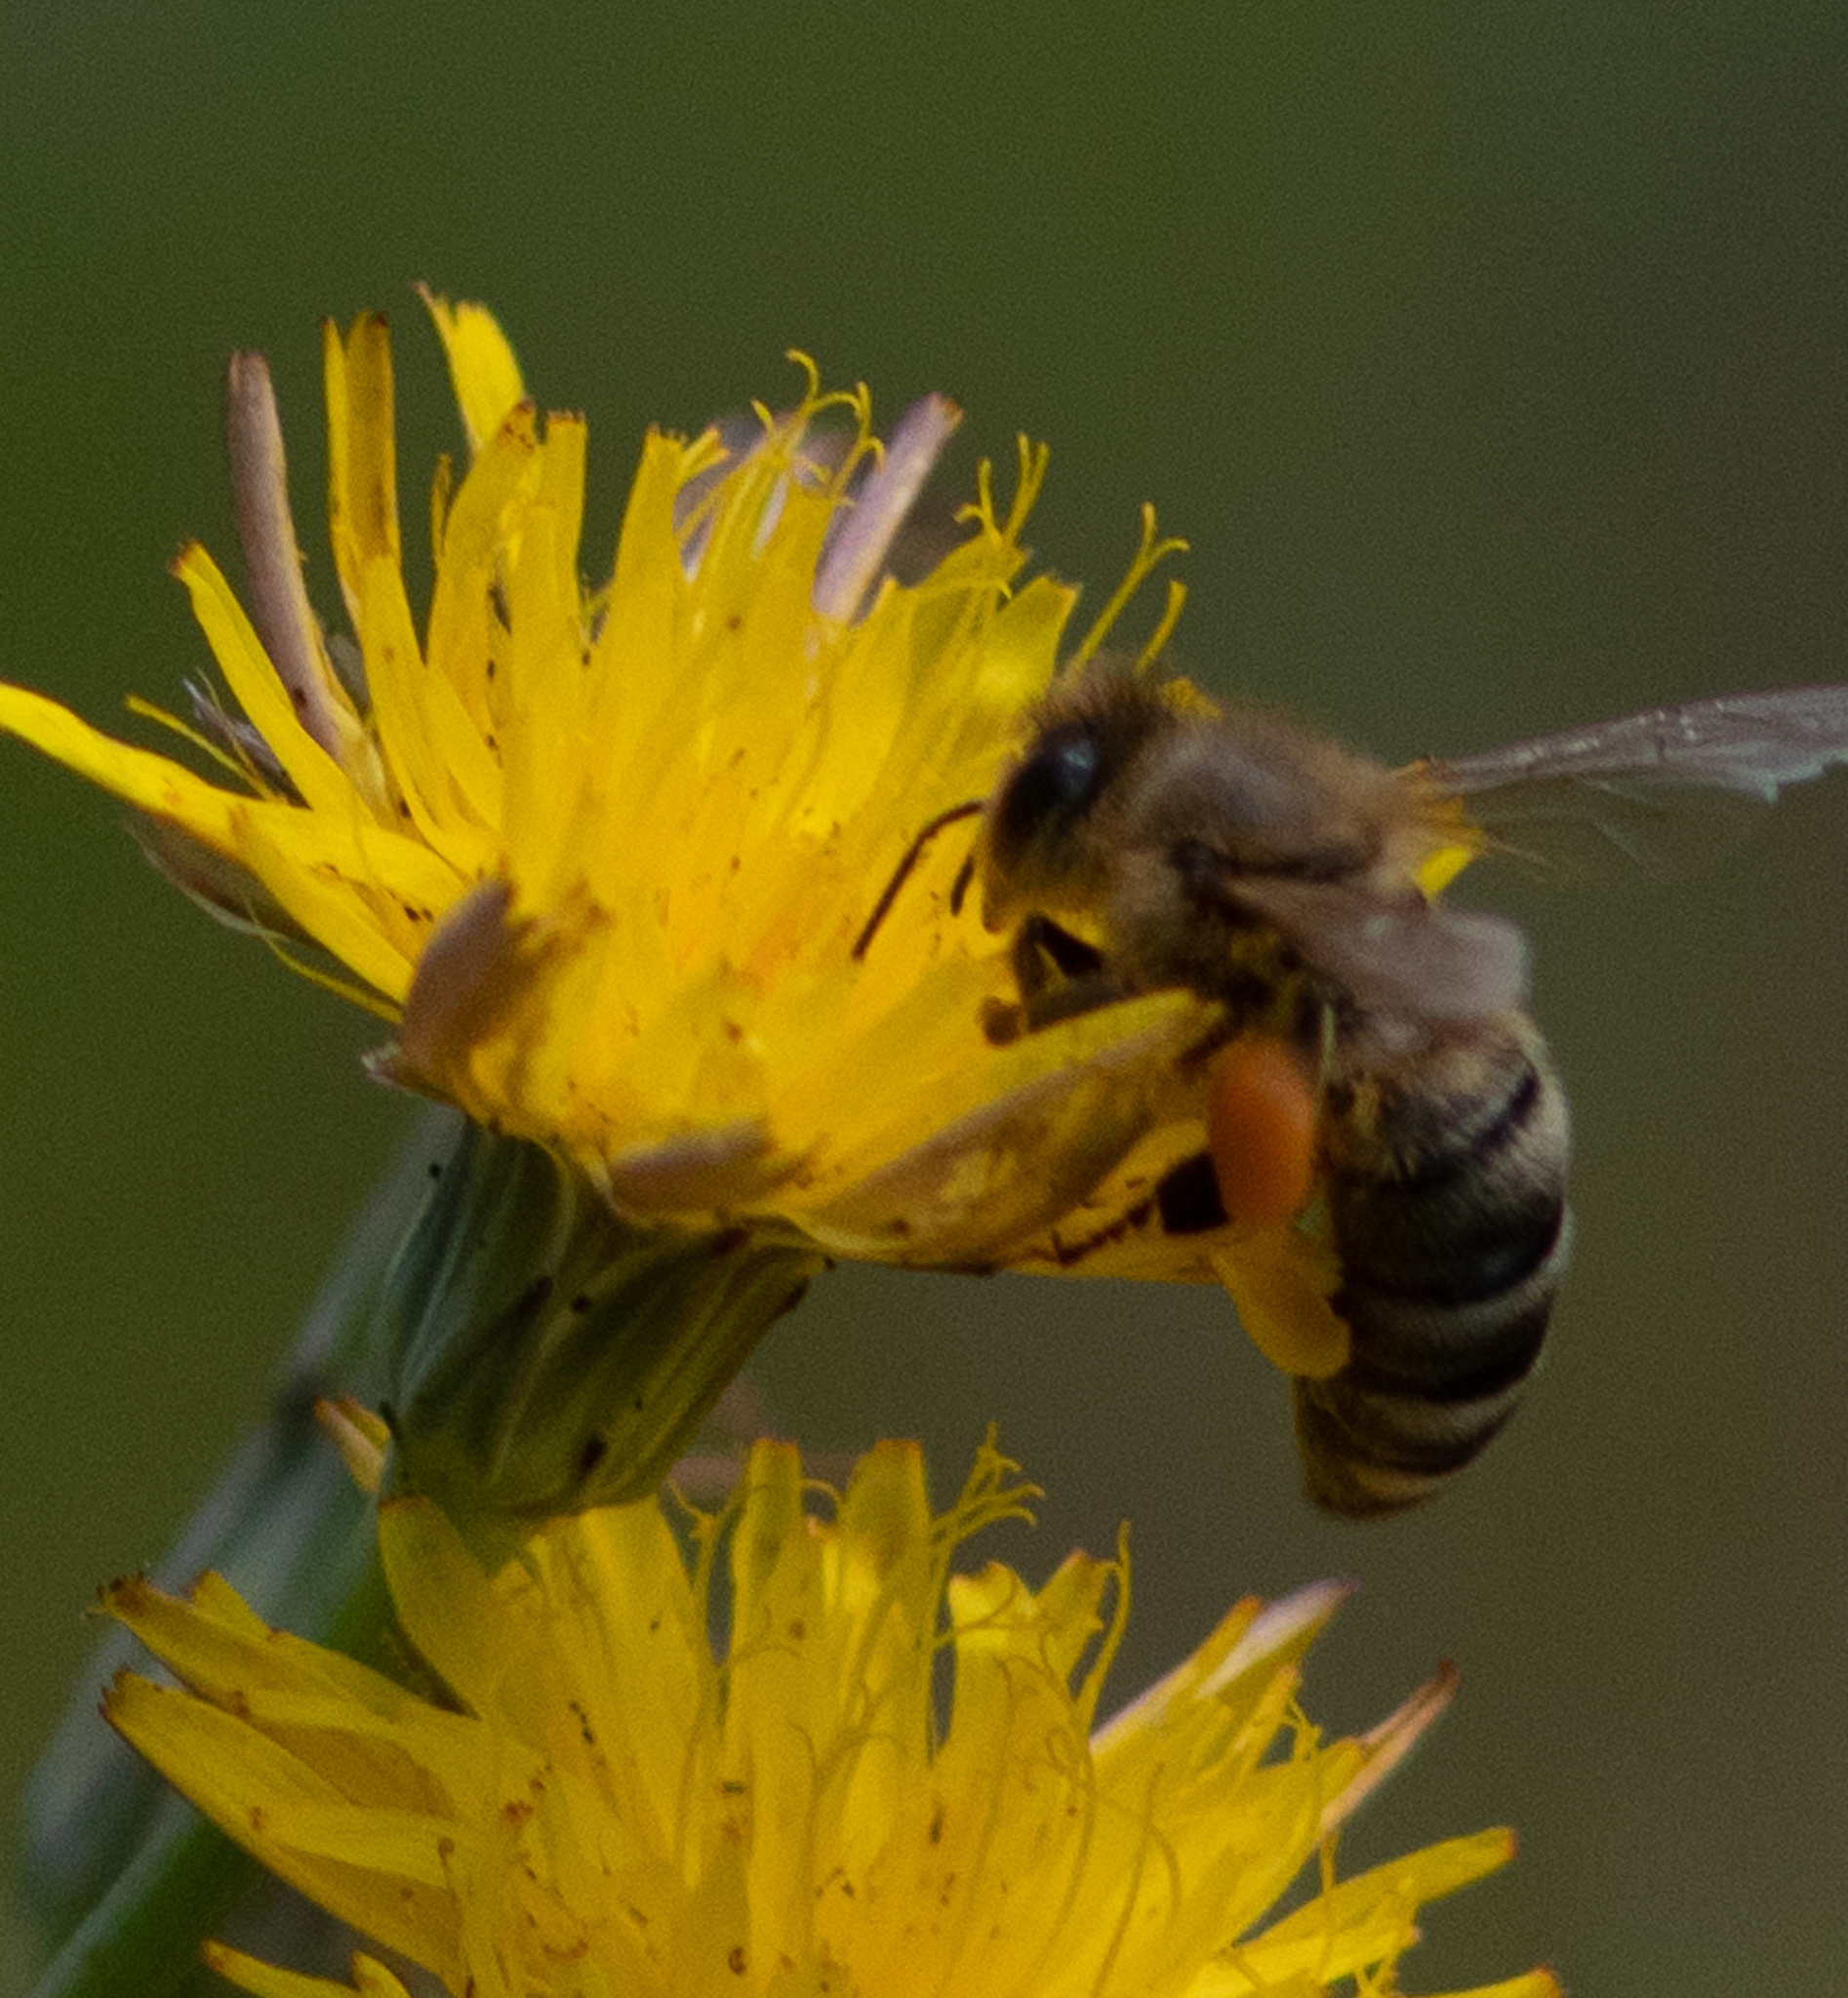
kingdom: Animalia
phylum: Arthropoda
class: Insecta
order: Hymenoptera
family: Apidae
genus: Apis
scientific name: Apis mellifera
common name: Honey bee
